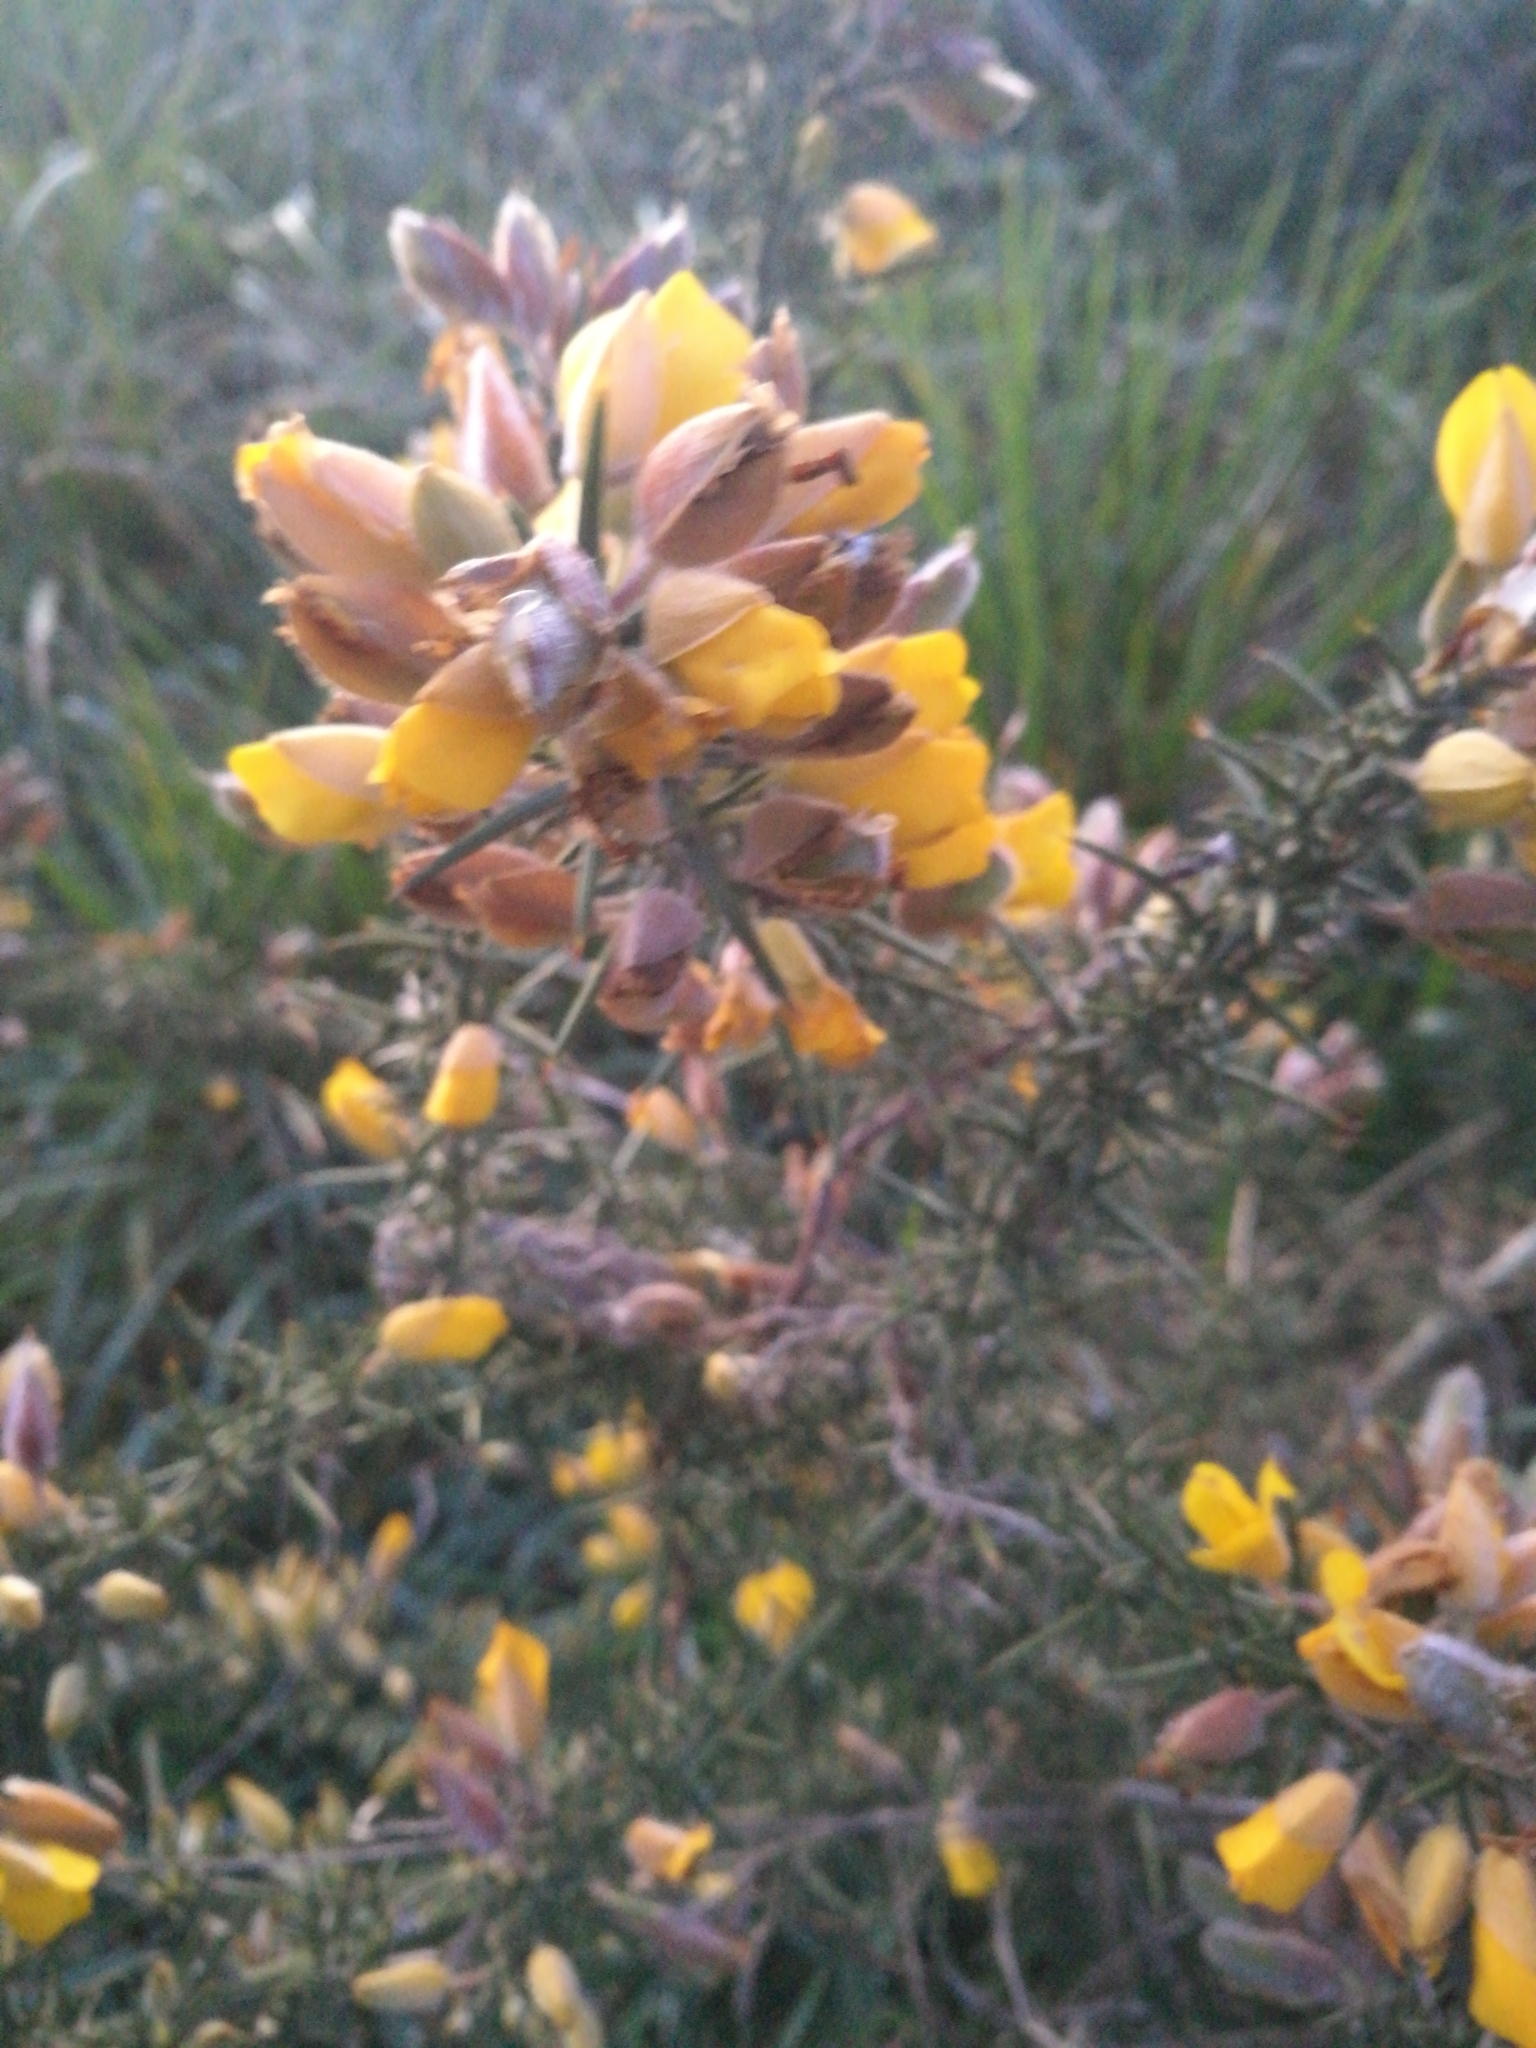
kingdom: Plantae
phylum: Tracheophyta
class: Magnoliopsida
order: Fabales
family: Fabaceae
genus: Ulex
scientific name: Ulex europaeus
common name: Common gorse
